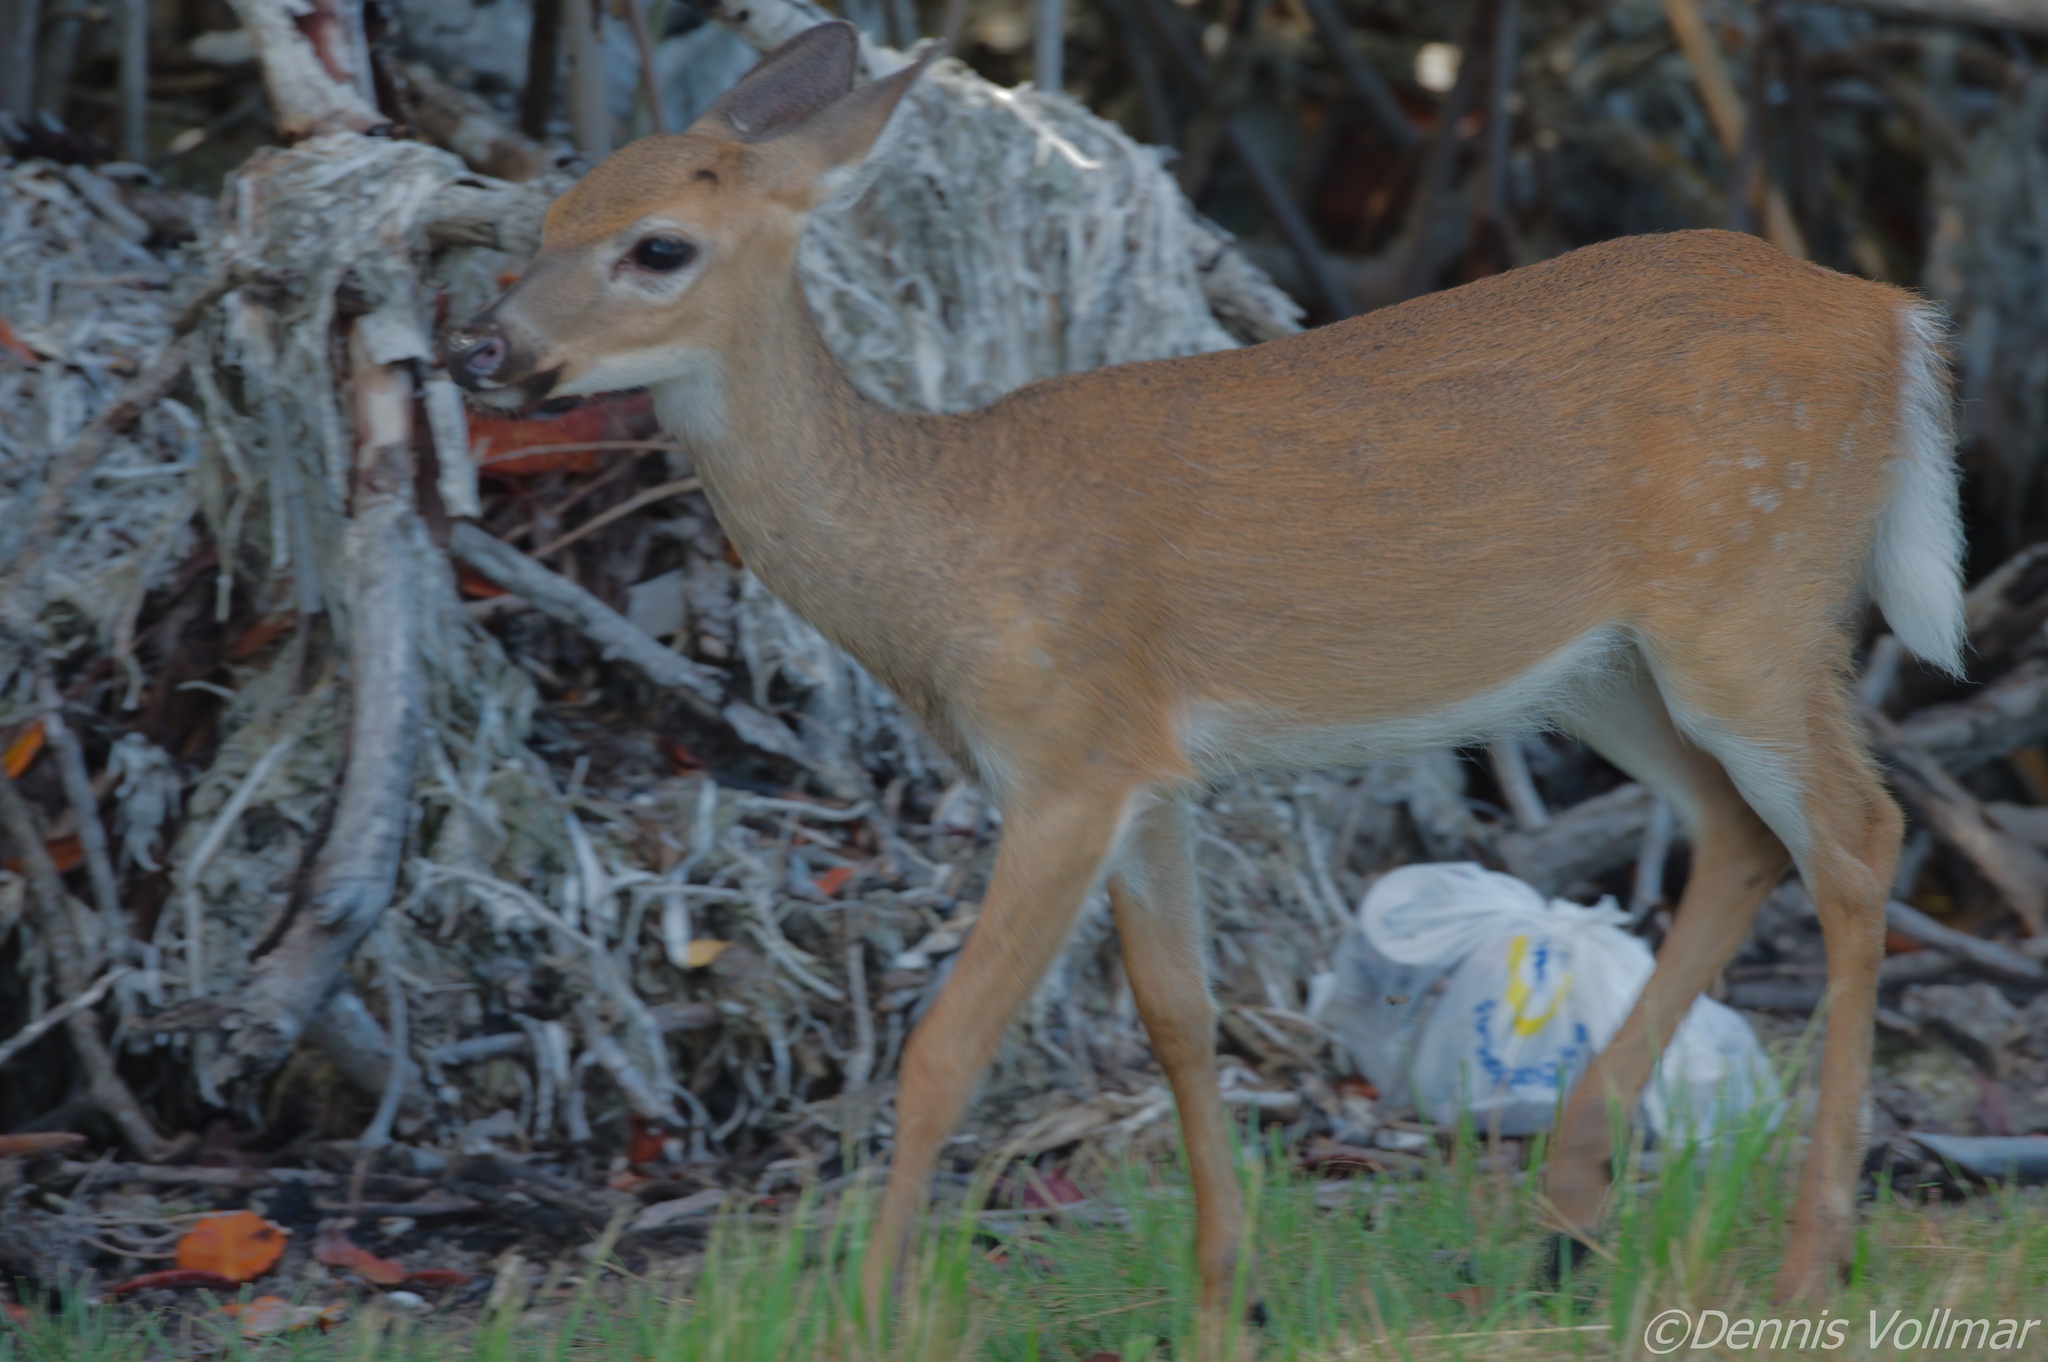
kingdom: Animalia
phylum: Chordata
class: Mammalia
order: Artiodactyla
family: Cervidae
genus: Odocoileus
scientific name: Odocoileus virginianus
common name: White-tailed deer
